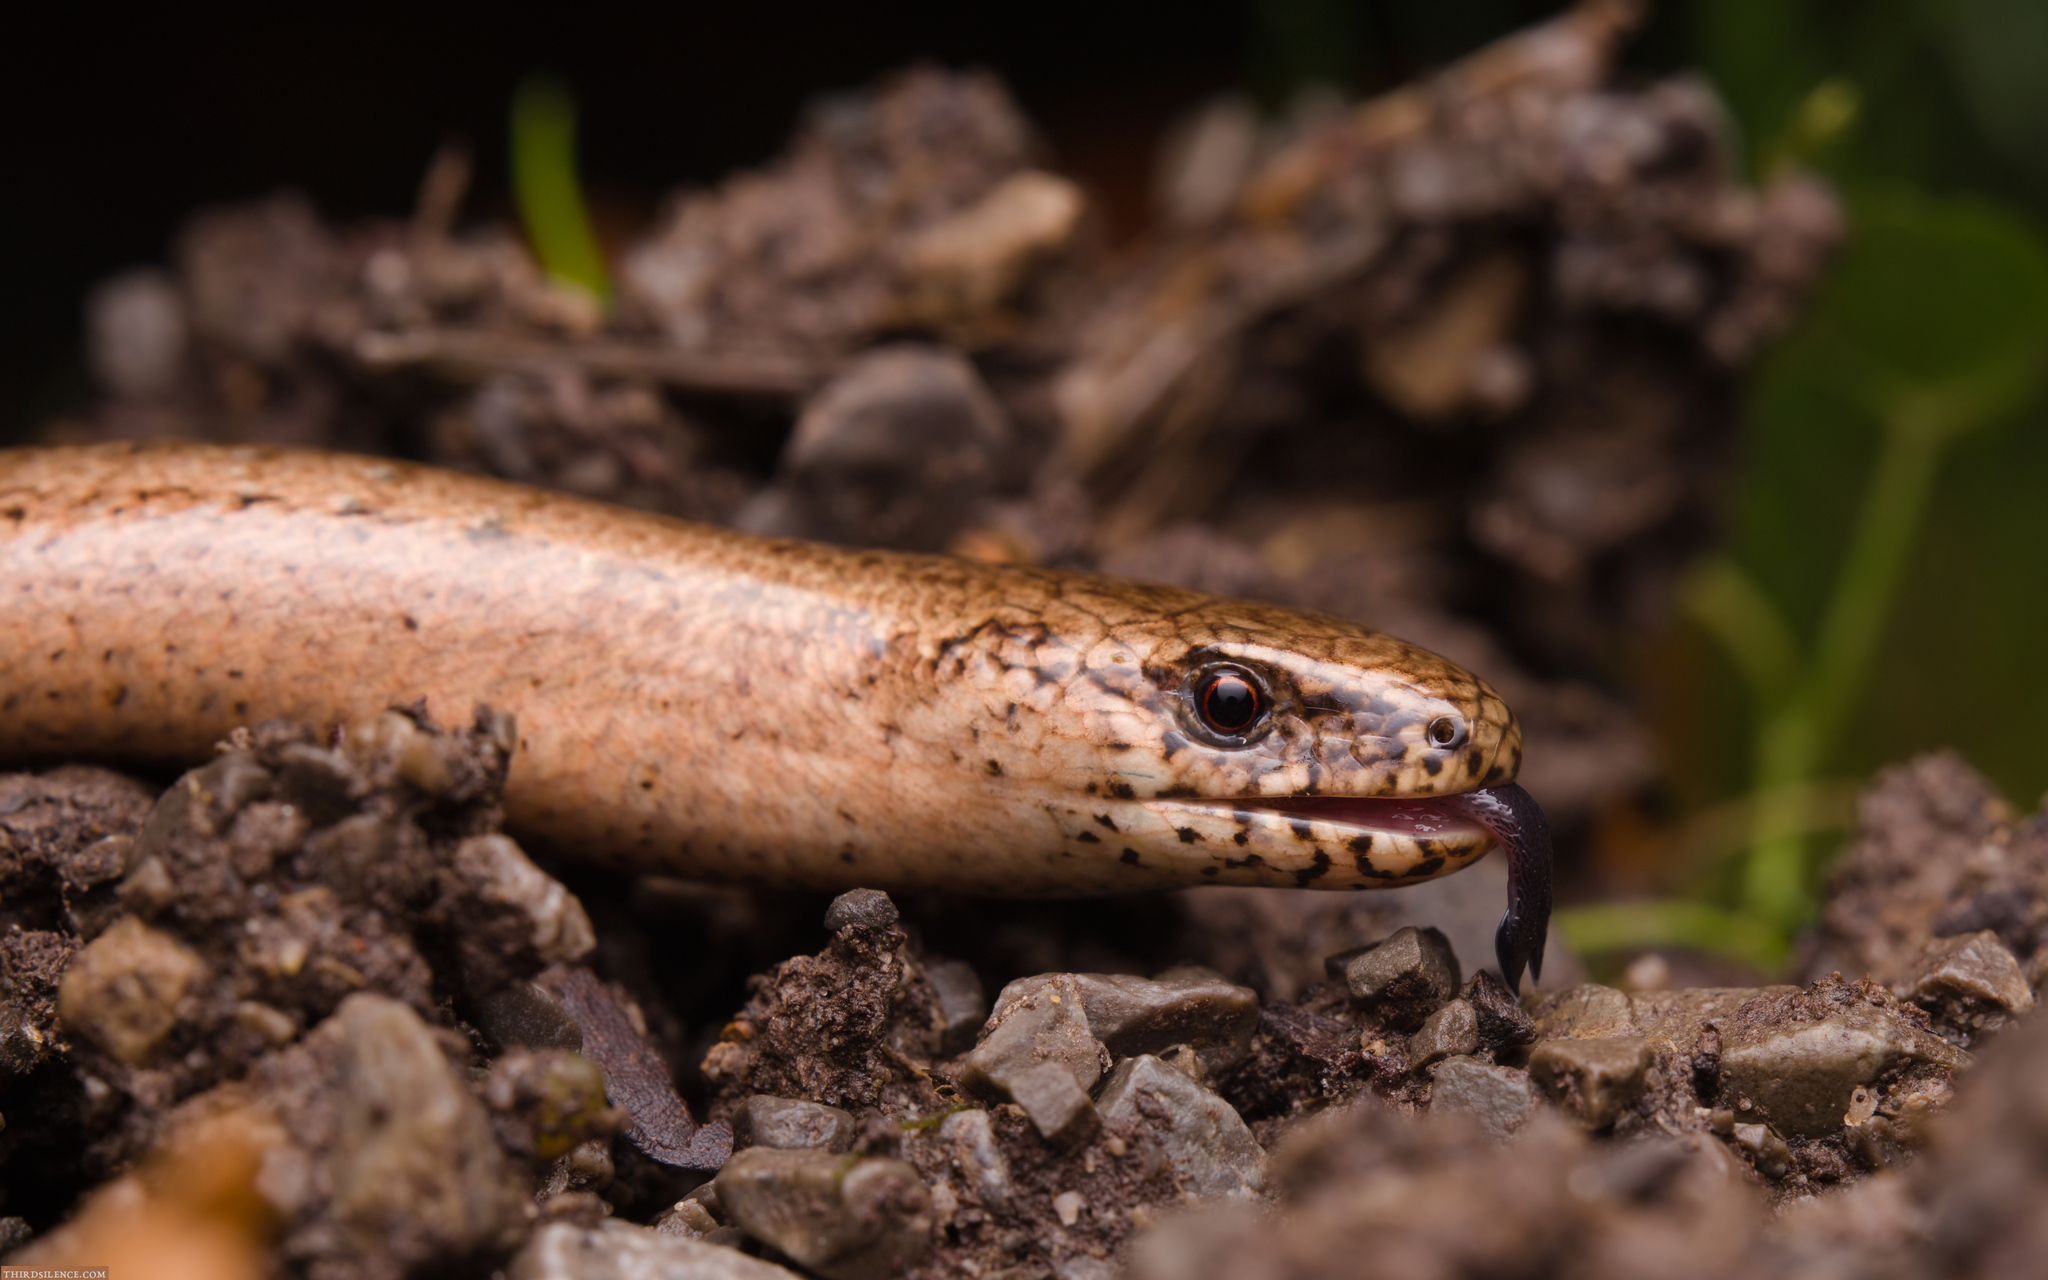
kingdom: Animalia
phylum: Chordata
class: Squamata
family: Anguidae
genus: Anguis
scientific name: Anguis fragilis
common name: Slow worm
